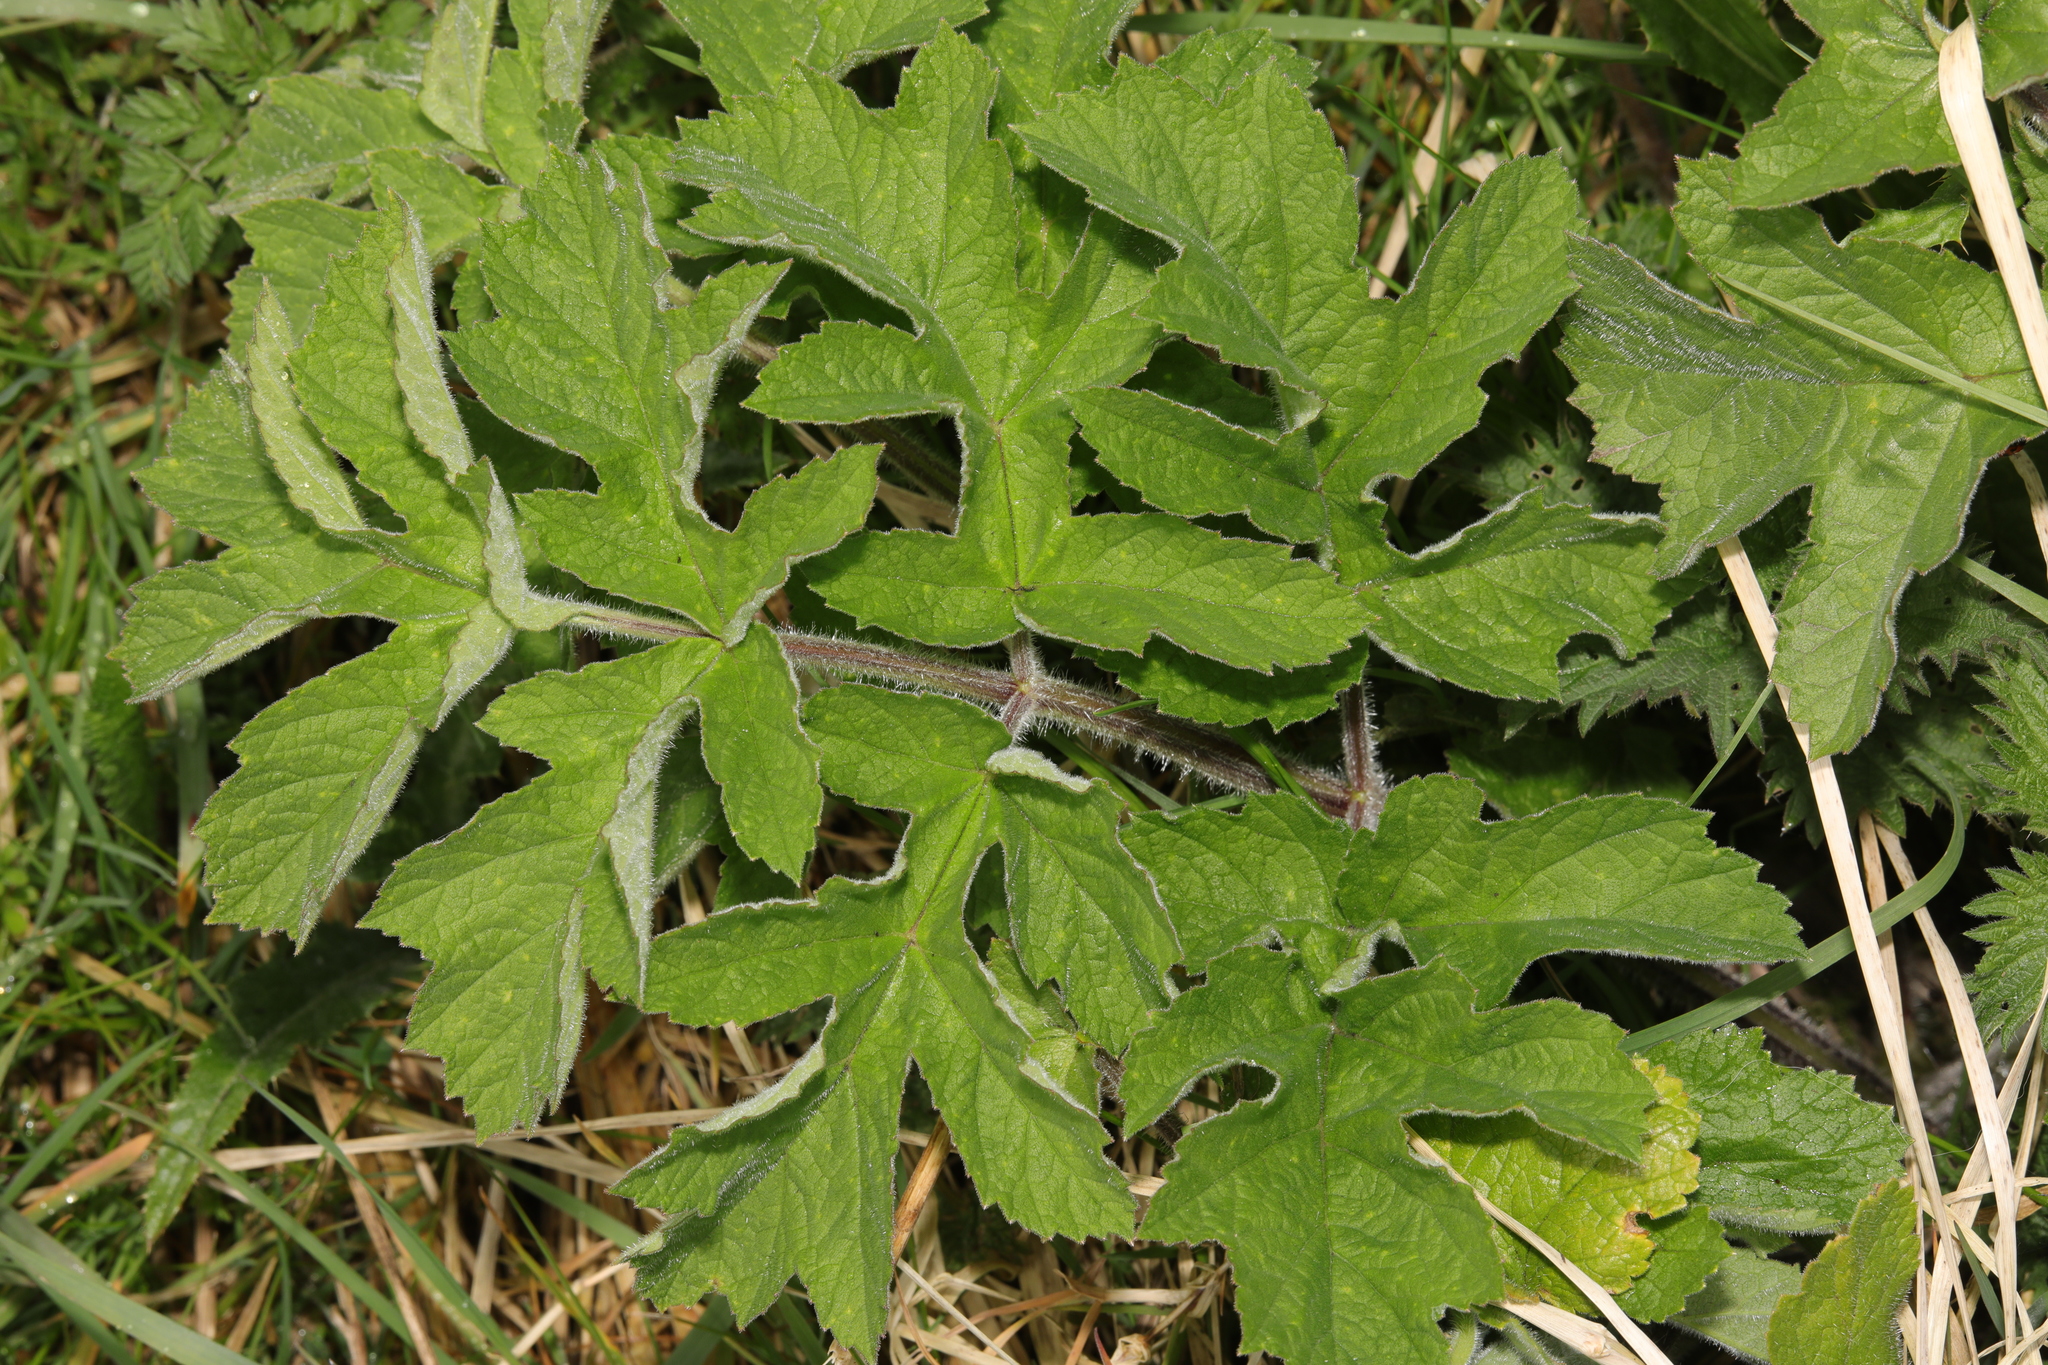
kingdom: Plantae
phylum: Tracheophyta
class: Magnoliopsida
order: Apiales
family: Apiaceae
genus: Heracleum
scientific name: Heracleum sphondylium
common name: Hogweed
